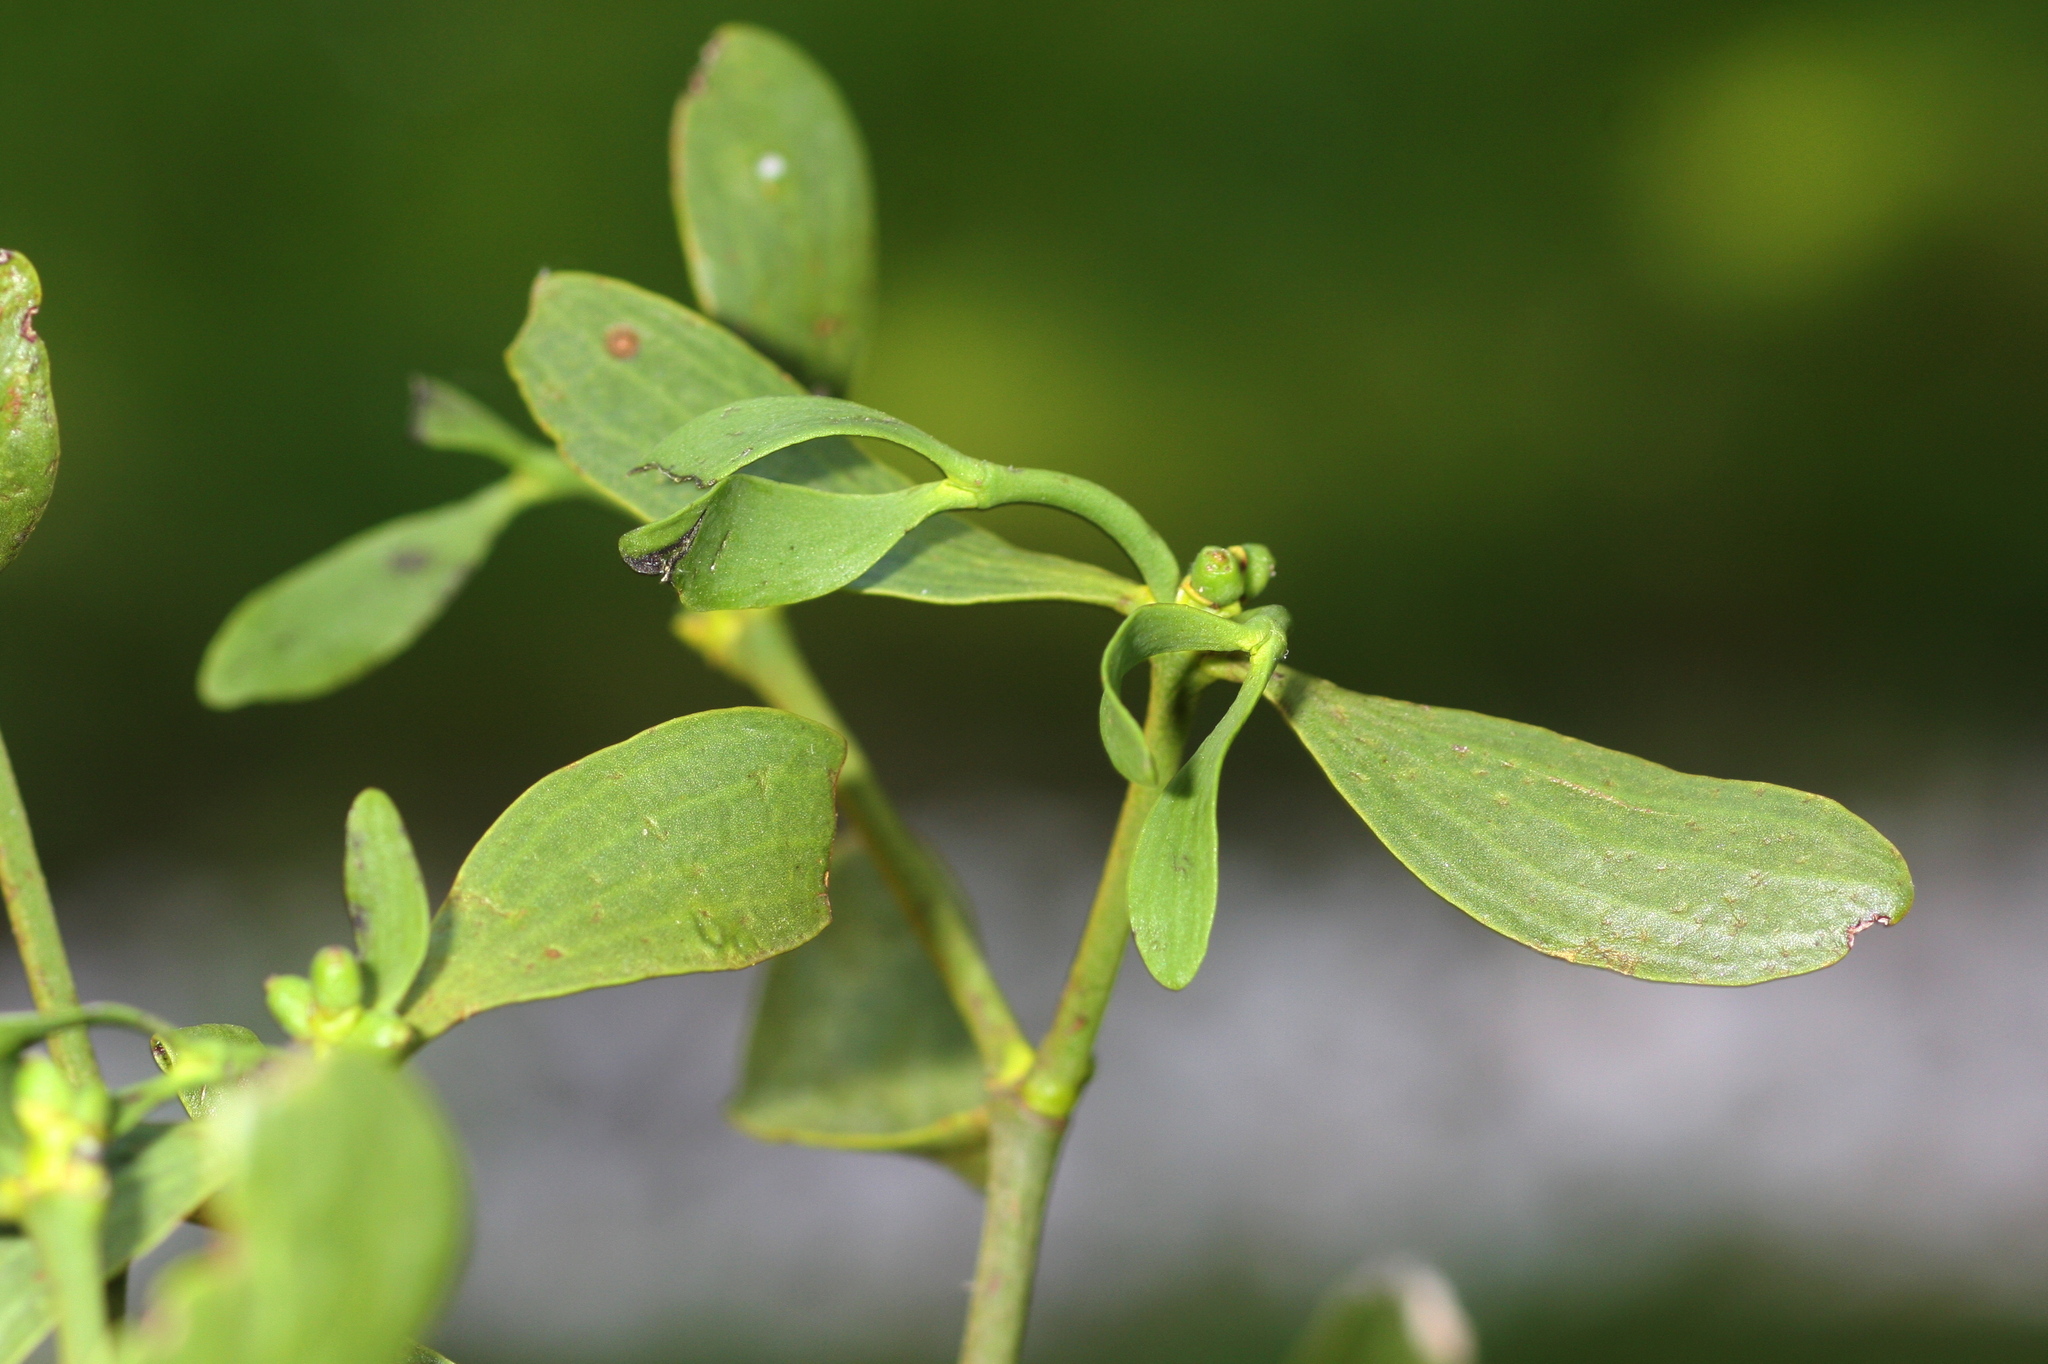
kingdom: Plantae
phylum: Tracheophyta
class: Magnoliopsida
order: Santalales
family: Viscaceae
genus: Viscum
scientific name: Viscum album
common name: Mistletoe
